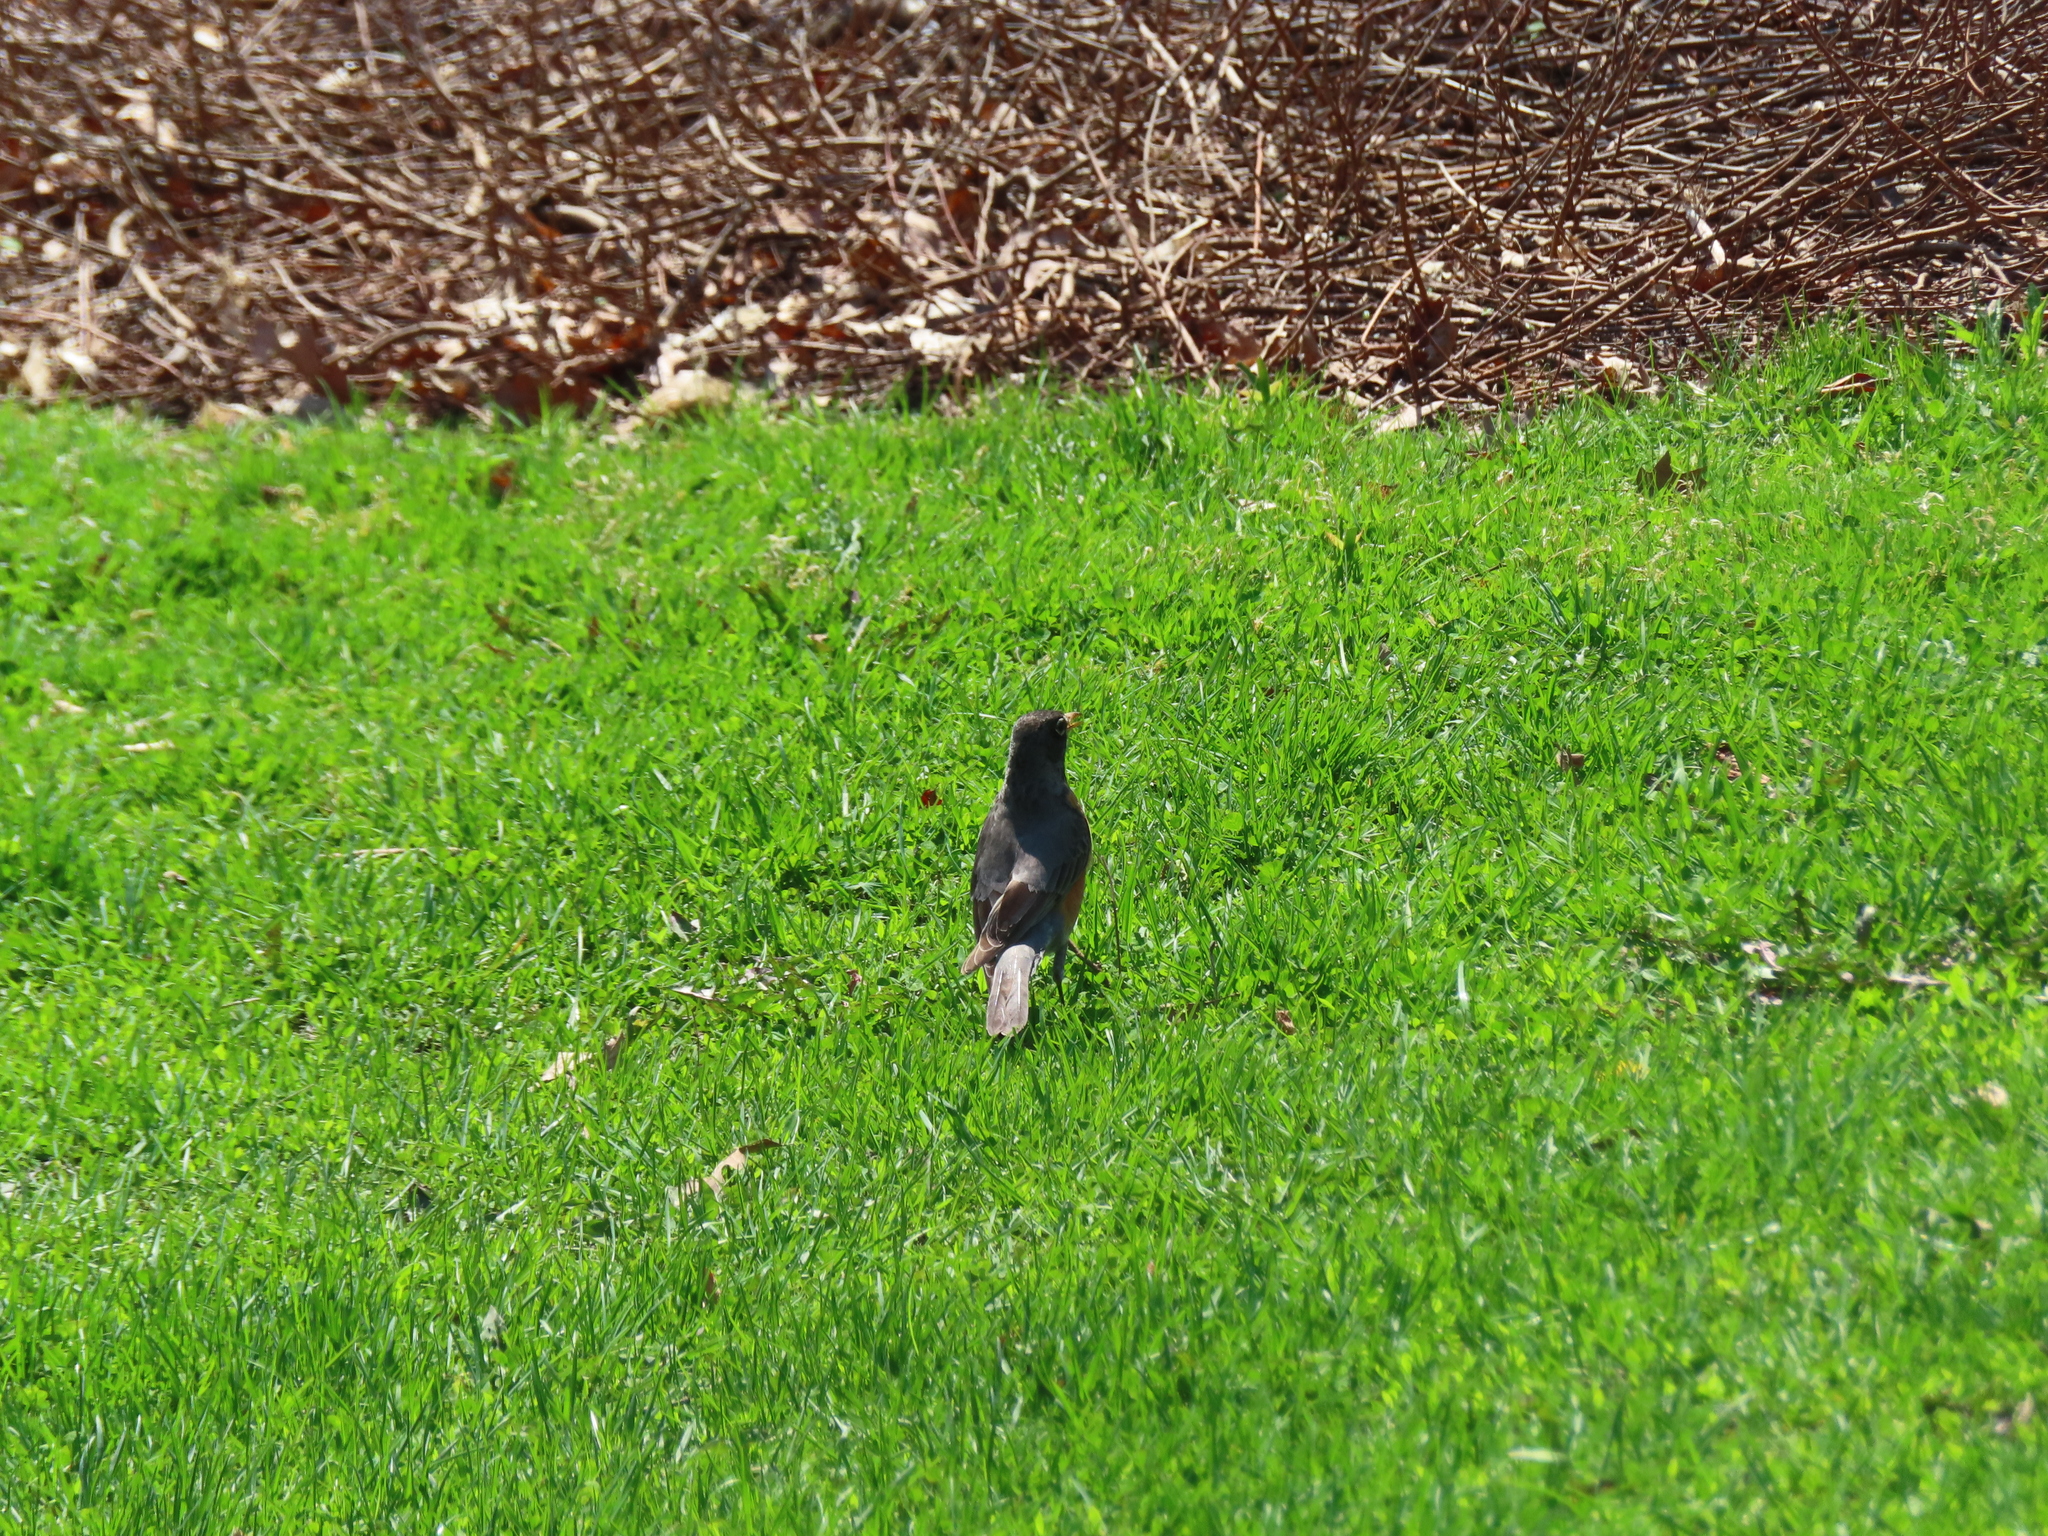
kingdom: Animalia
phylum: Chordata
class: Aves
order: Passeriformes
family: Turdidae
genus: Turdus
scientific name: Turdus migratorius
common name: American robin
